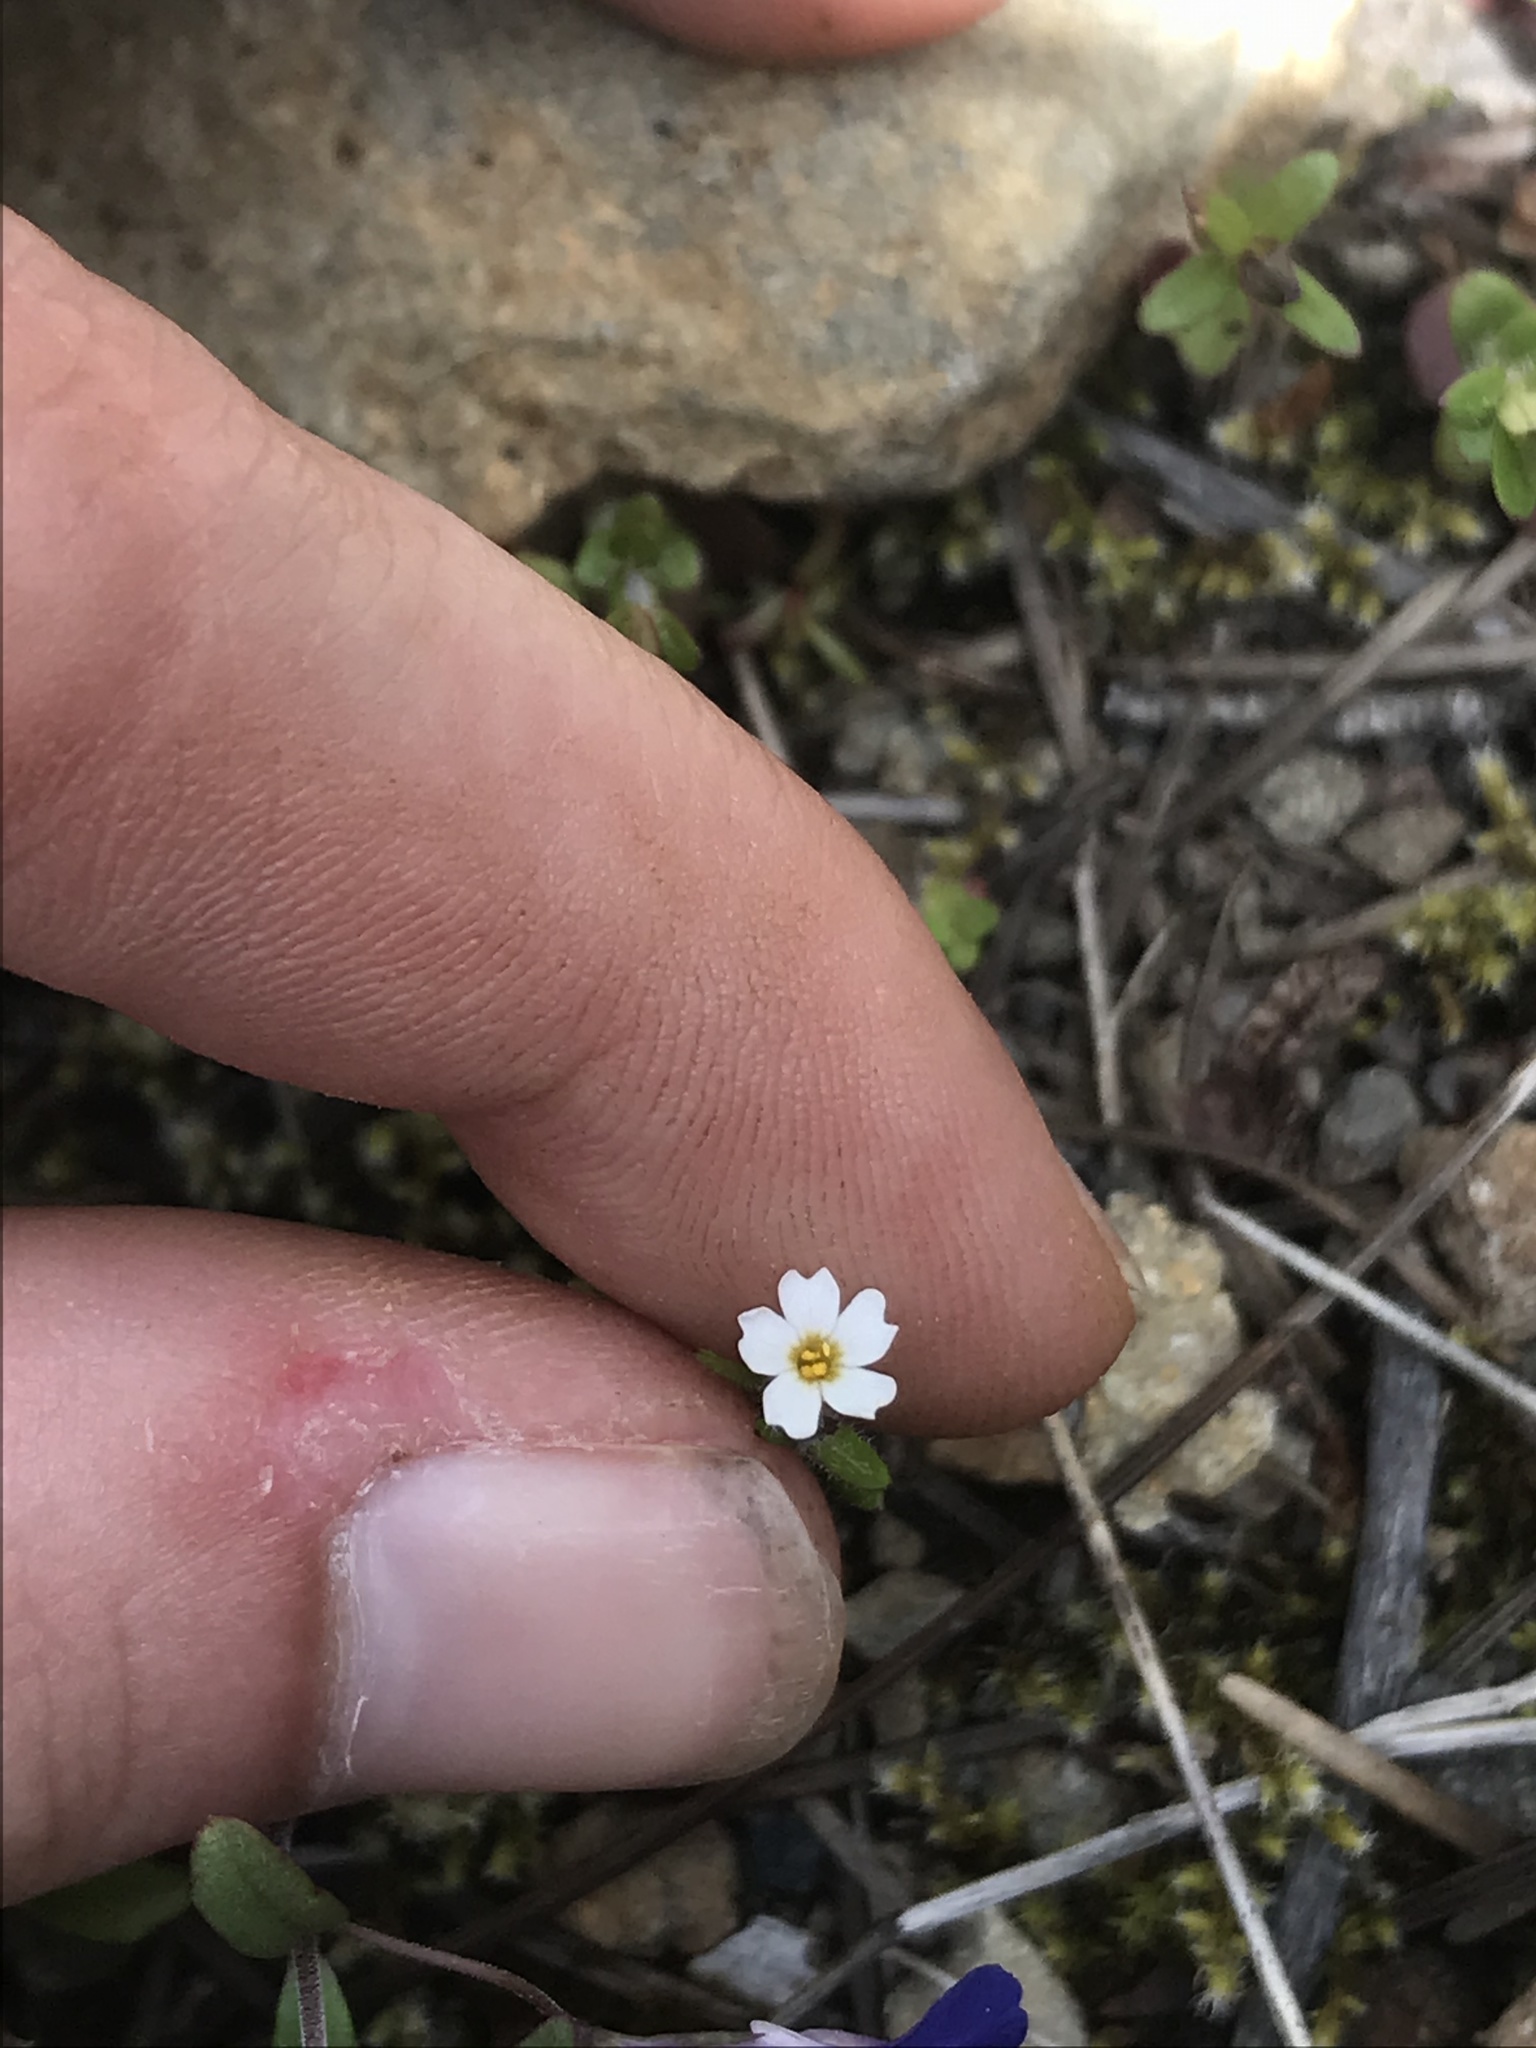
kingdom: Plantae
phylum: Tracheophyta
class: Magnoliopsida
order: Ericales
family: Polemoniaceae
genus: Phlox
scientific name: Phlox gracilis
